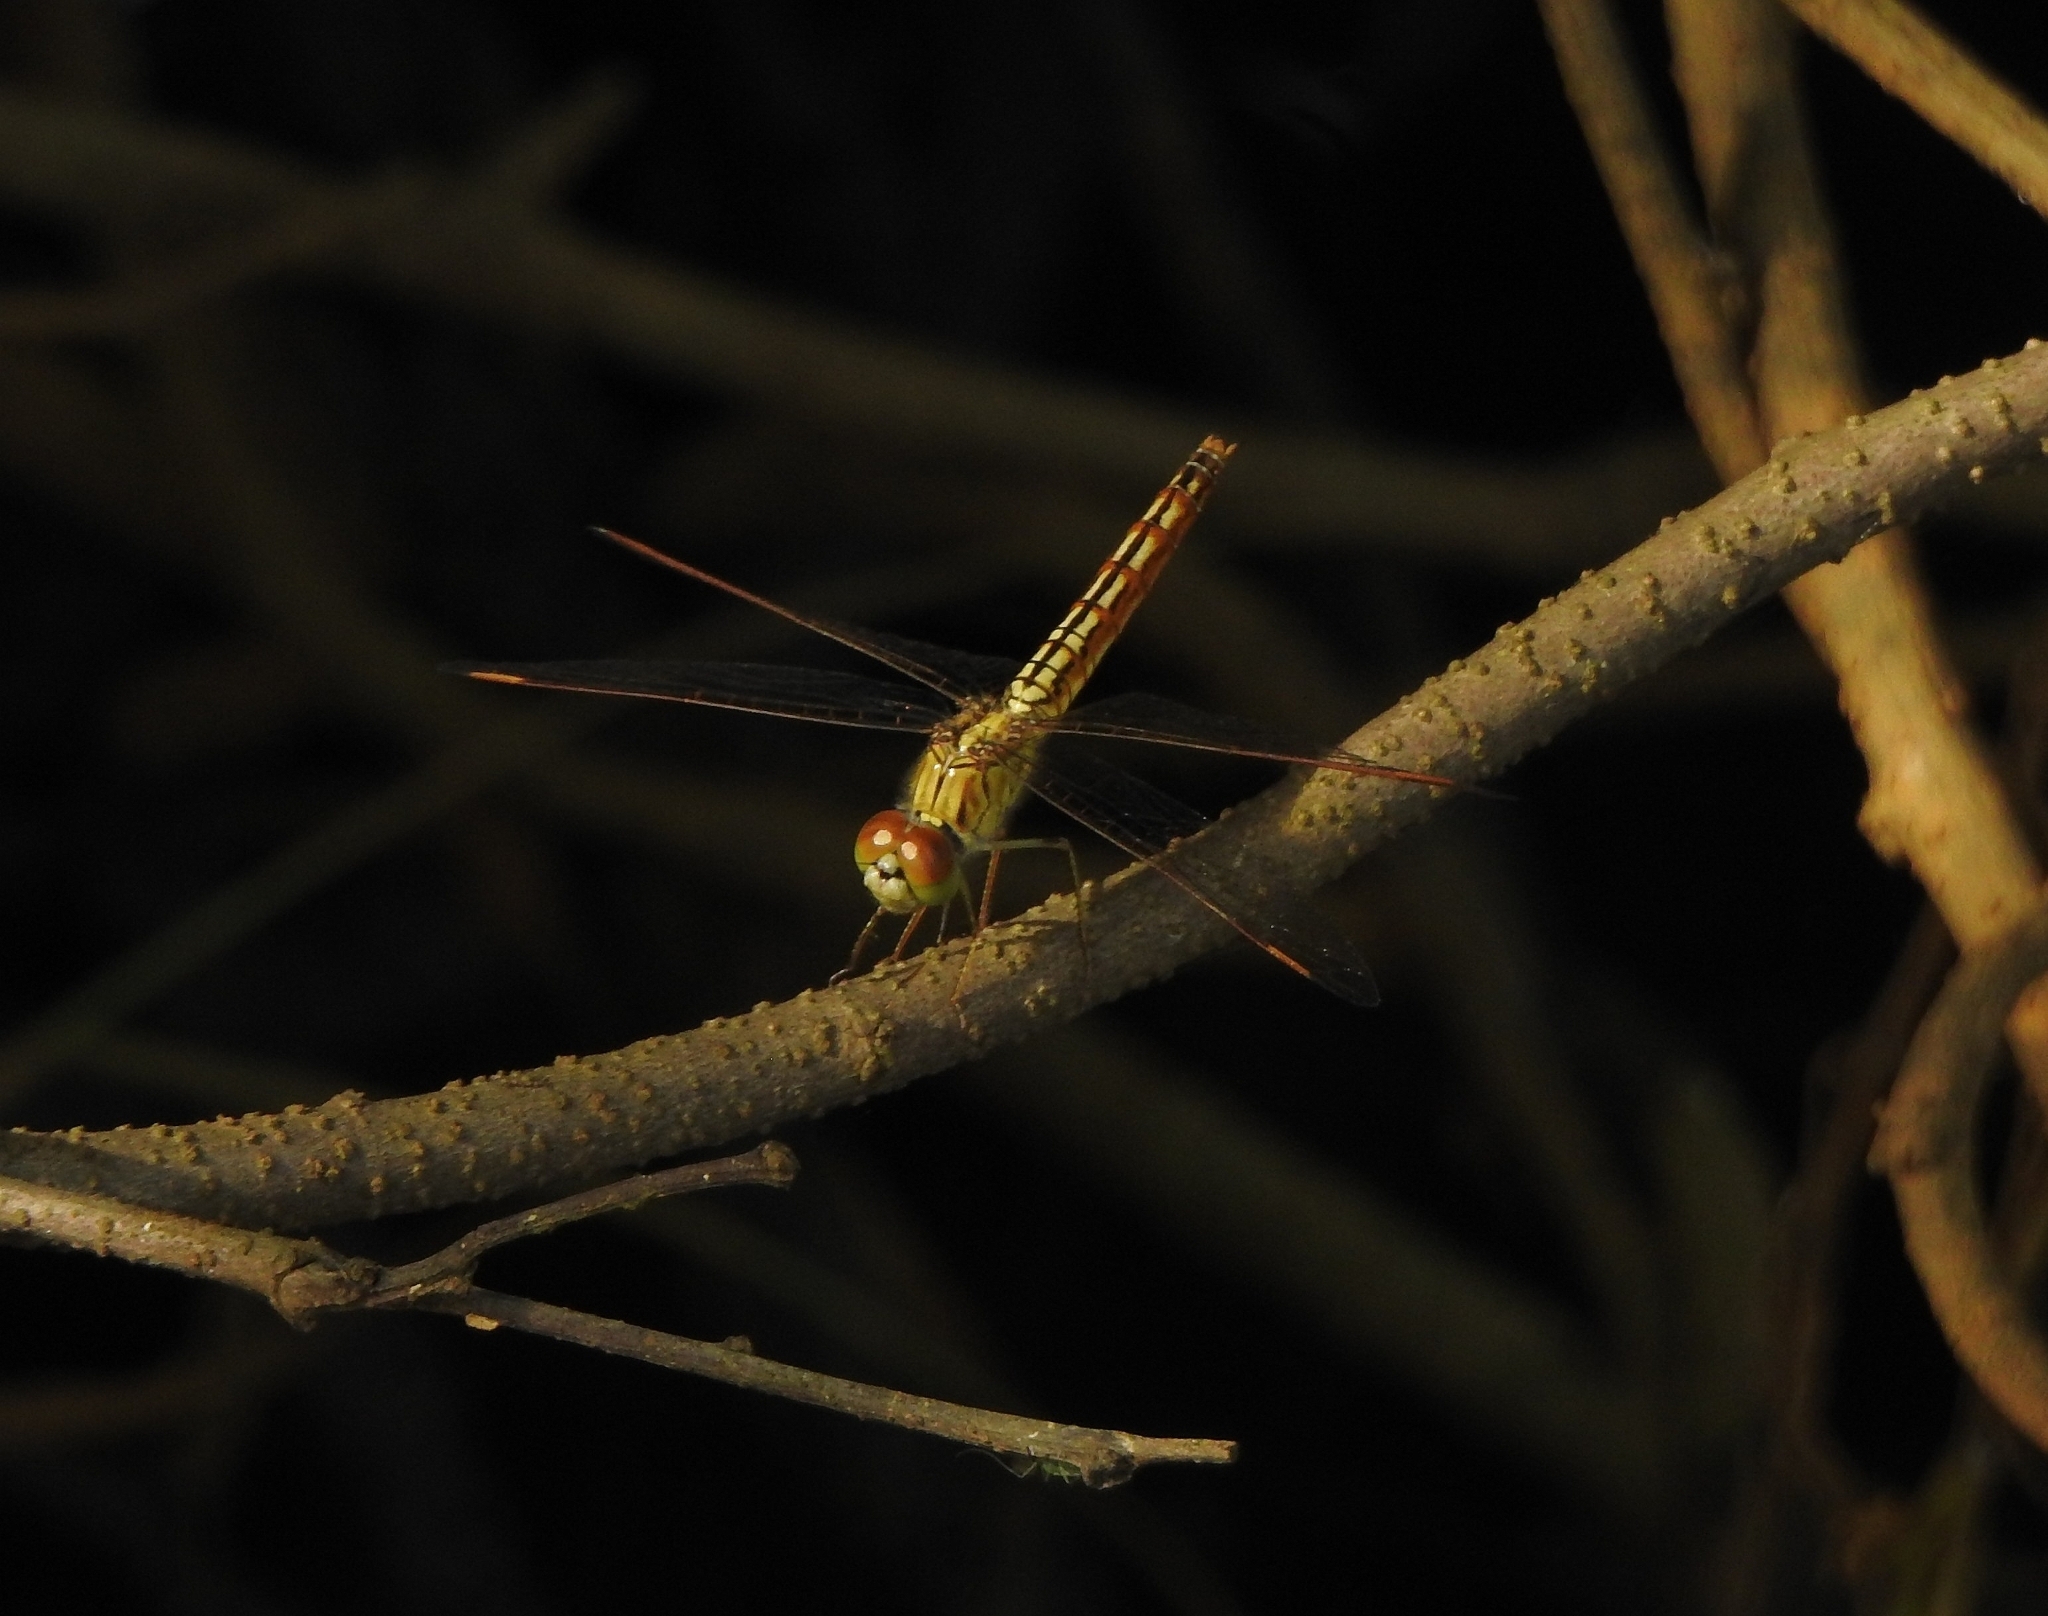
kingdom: Animalia
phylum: Arthropoda
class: Insecta
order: Odonata
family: Libellulidae
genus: Brachythemis
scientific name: Brachythemis contaminata
